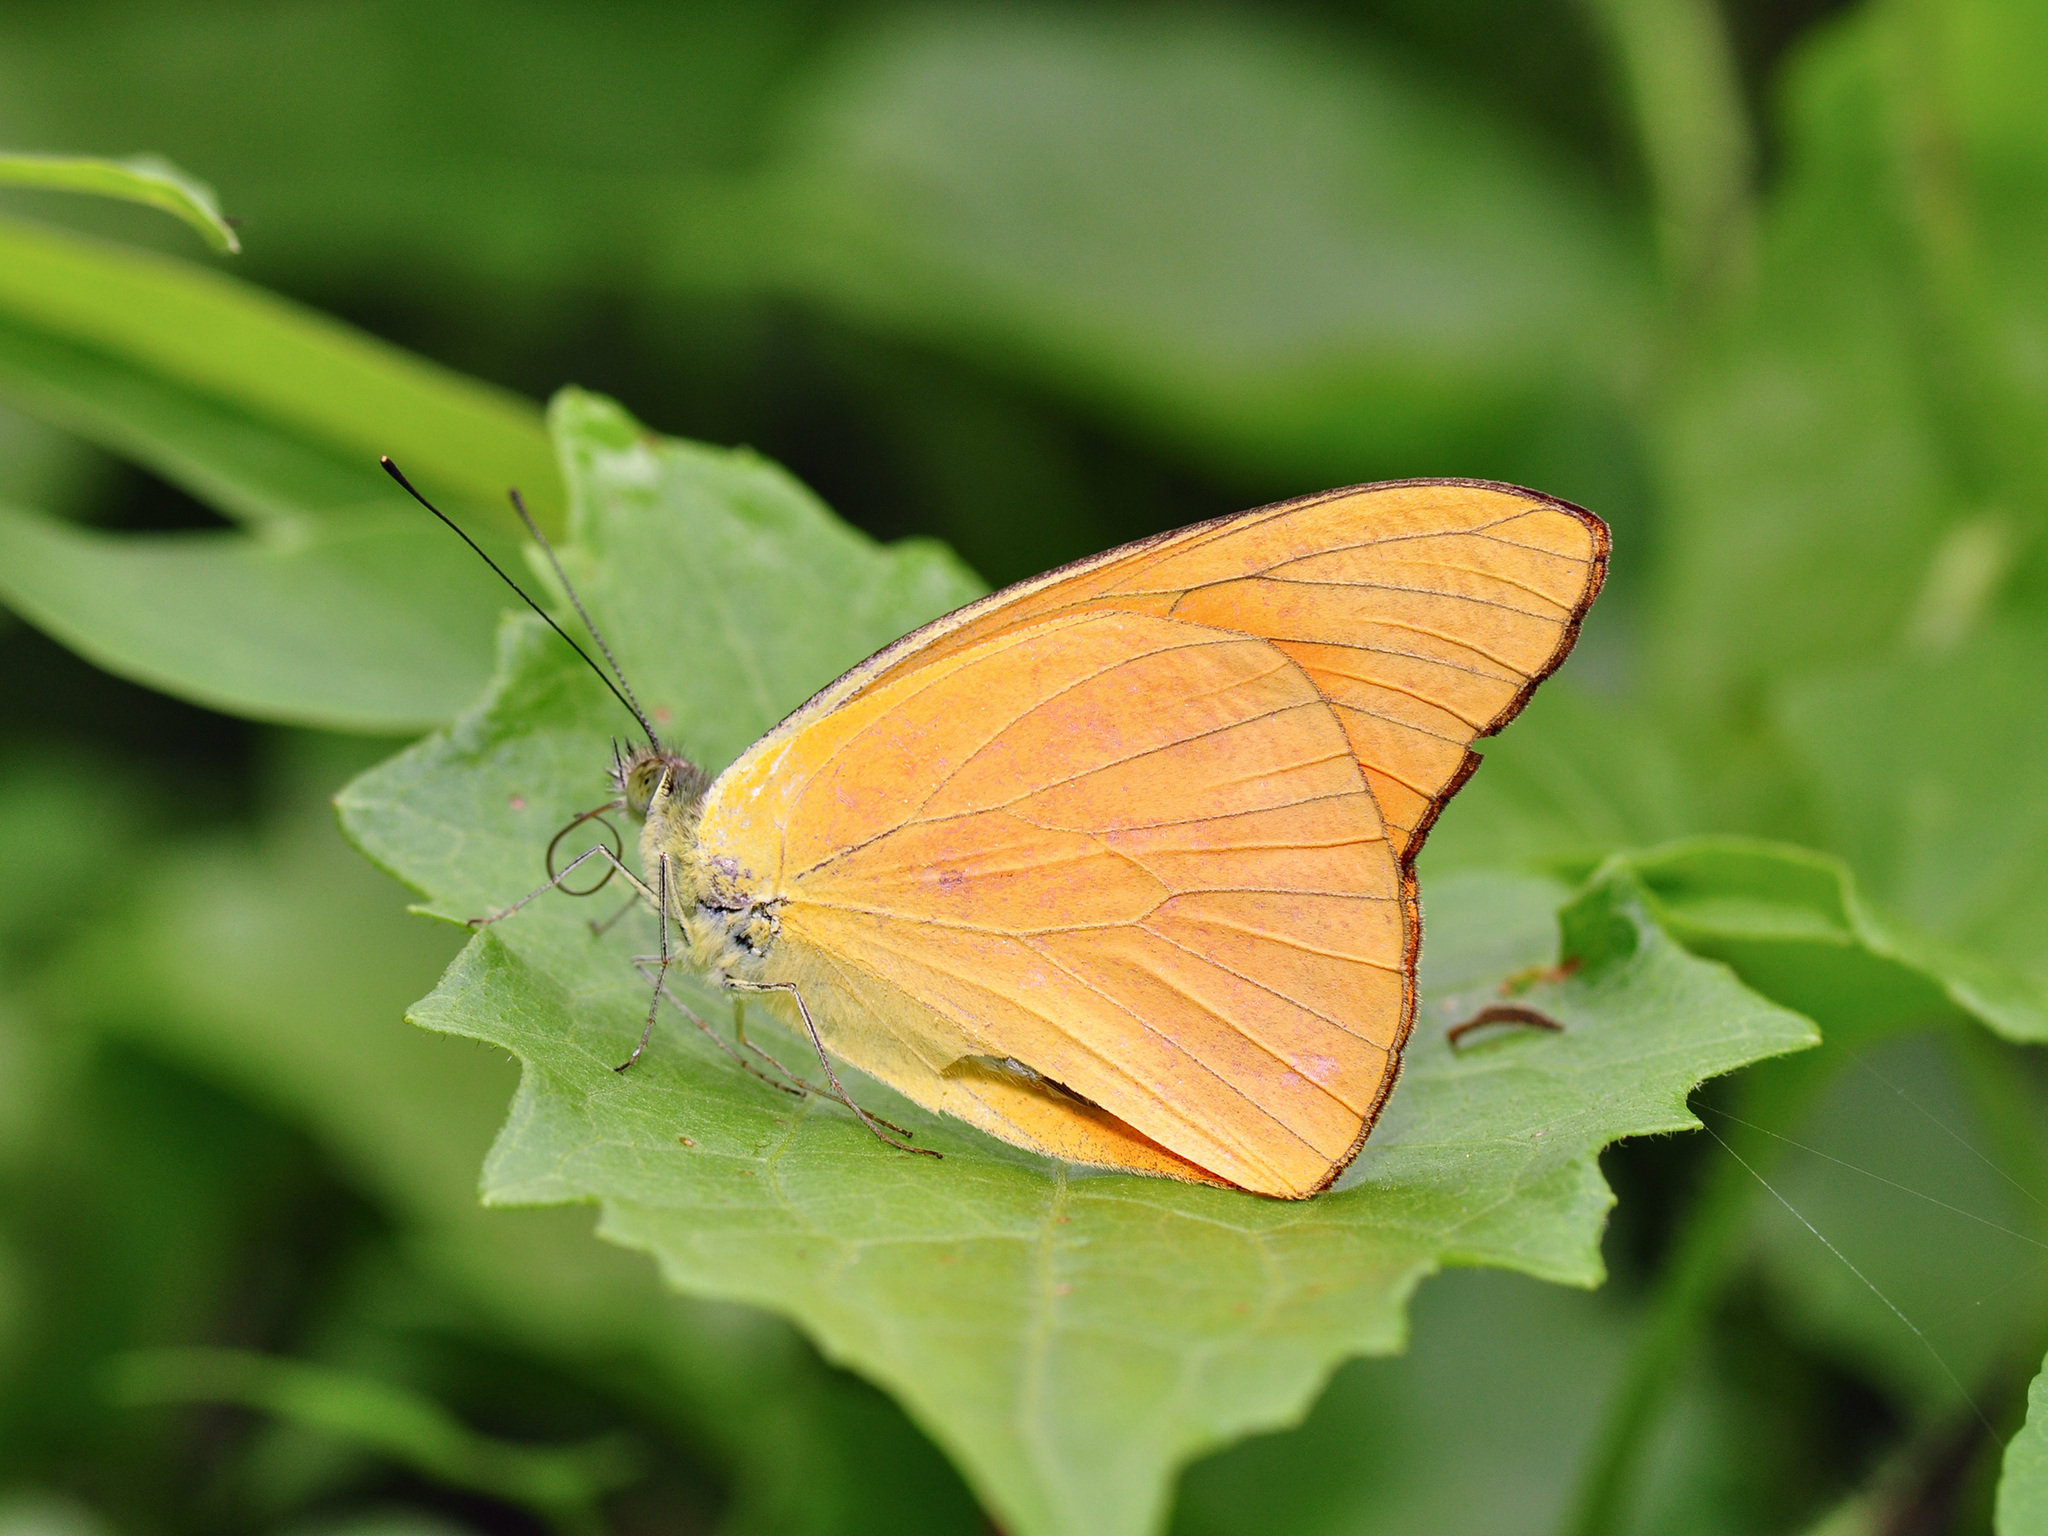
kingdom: Animalia
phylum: Arthropoda
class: Insecta
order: Lepidoptera
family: Pieridae
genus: Appias
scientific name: Appias nero
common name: Orange albatross
